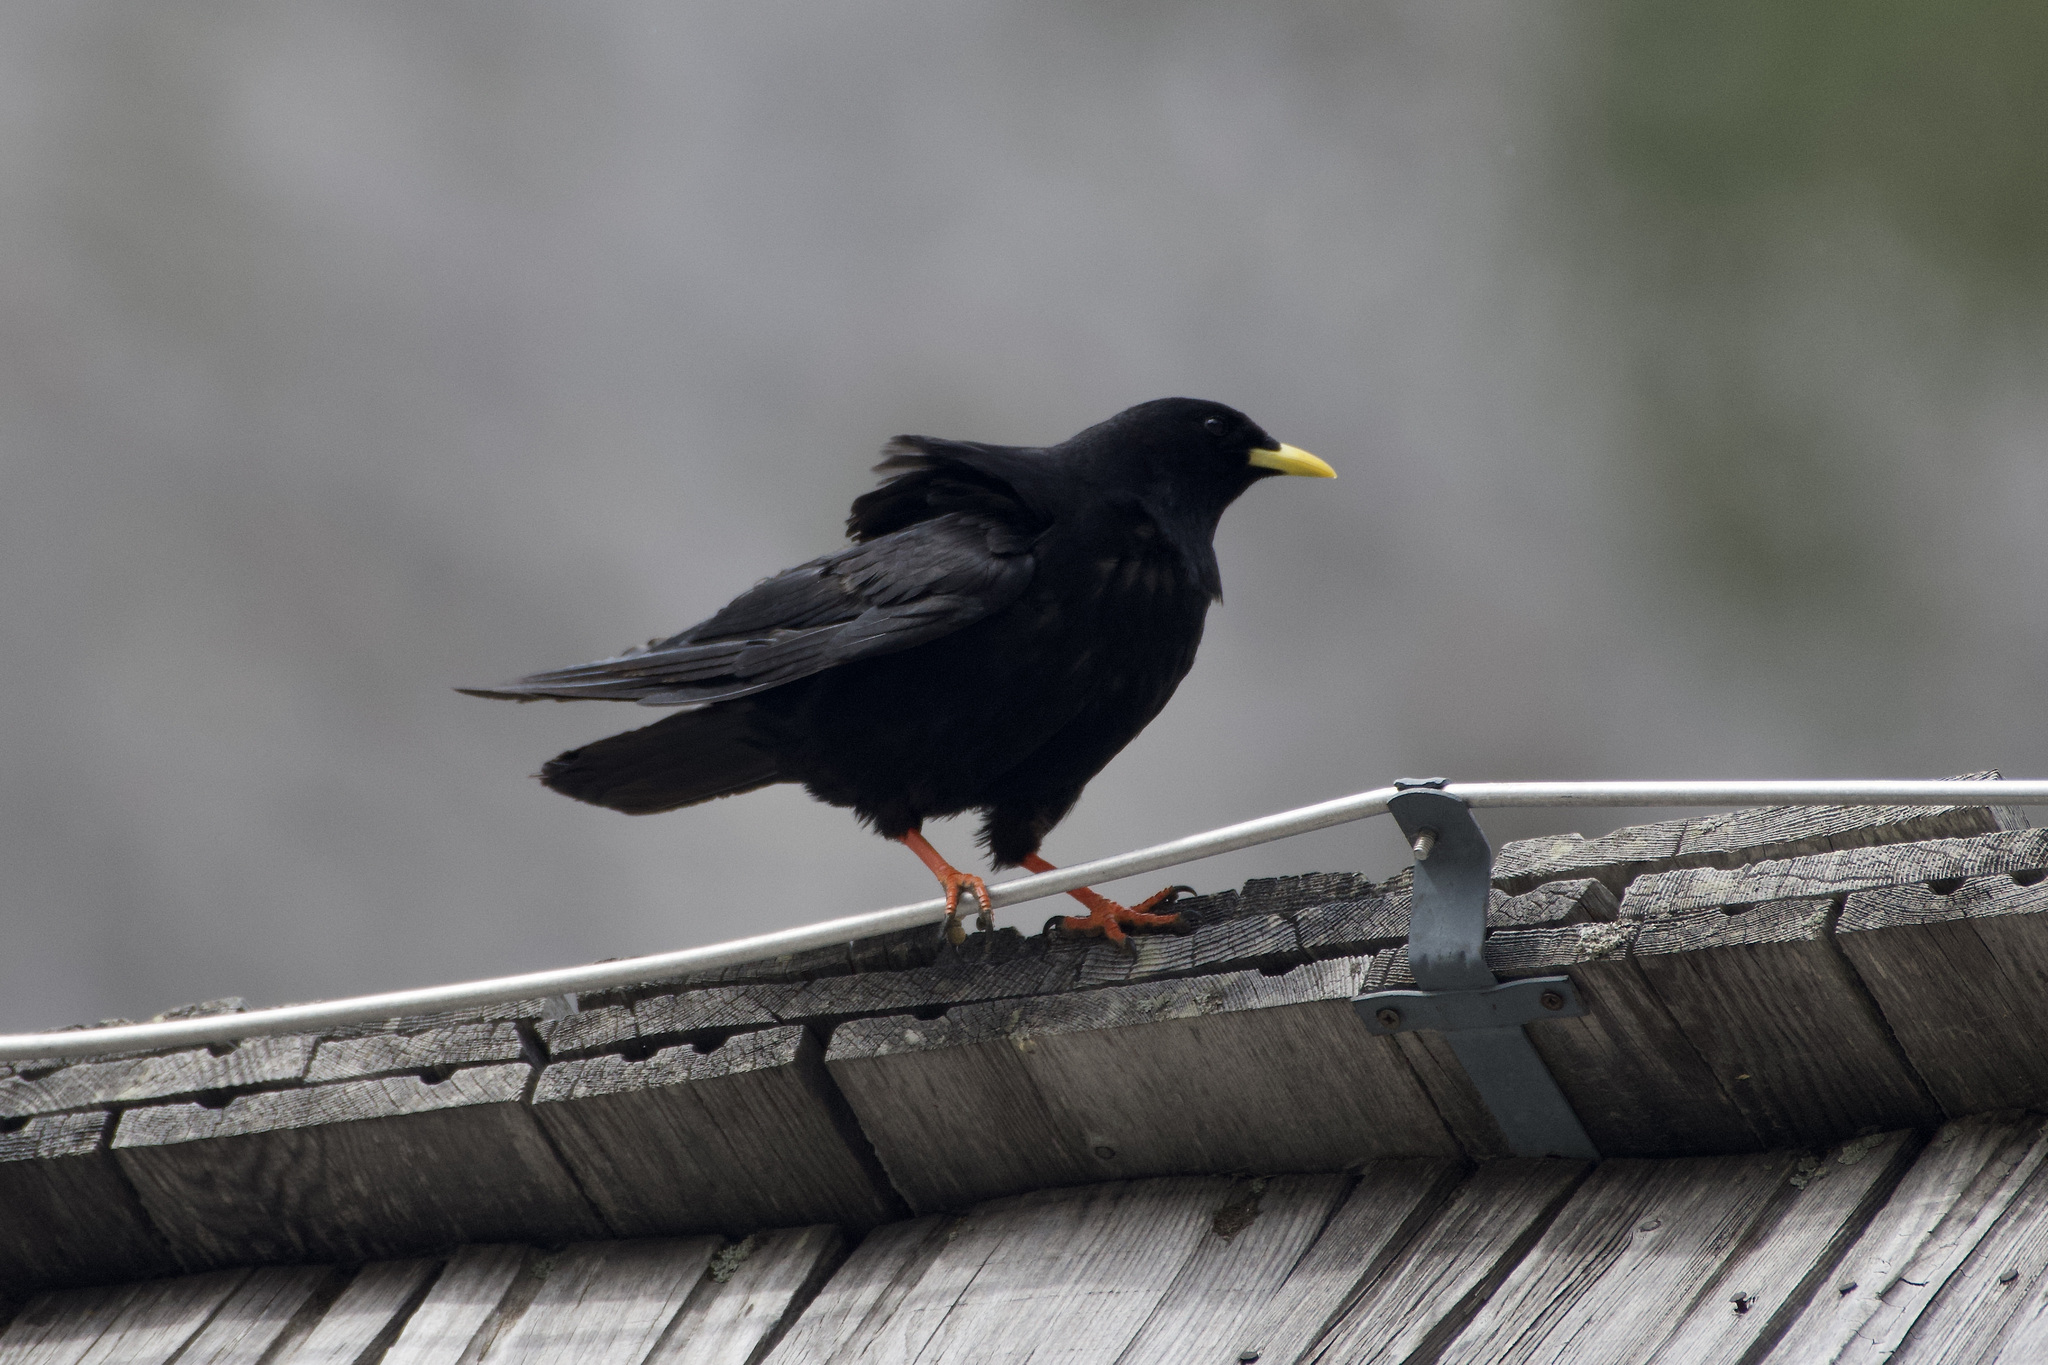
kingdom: Animalia
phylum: Chordata
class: Aves
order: Passeriformes
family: Corvidae
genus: Pyrrhocorax
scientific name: Pyrrhocorax graculus
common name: Alpine chough
